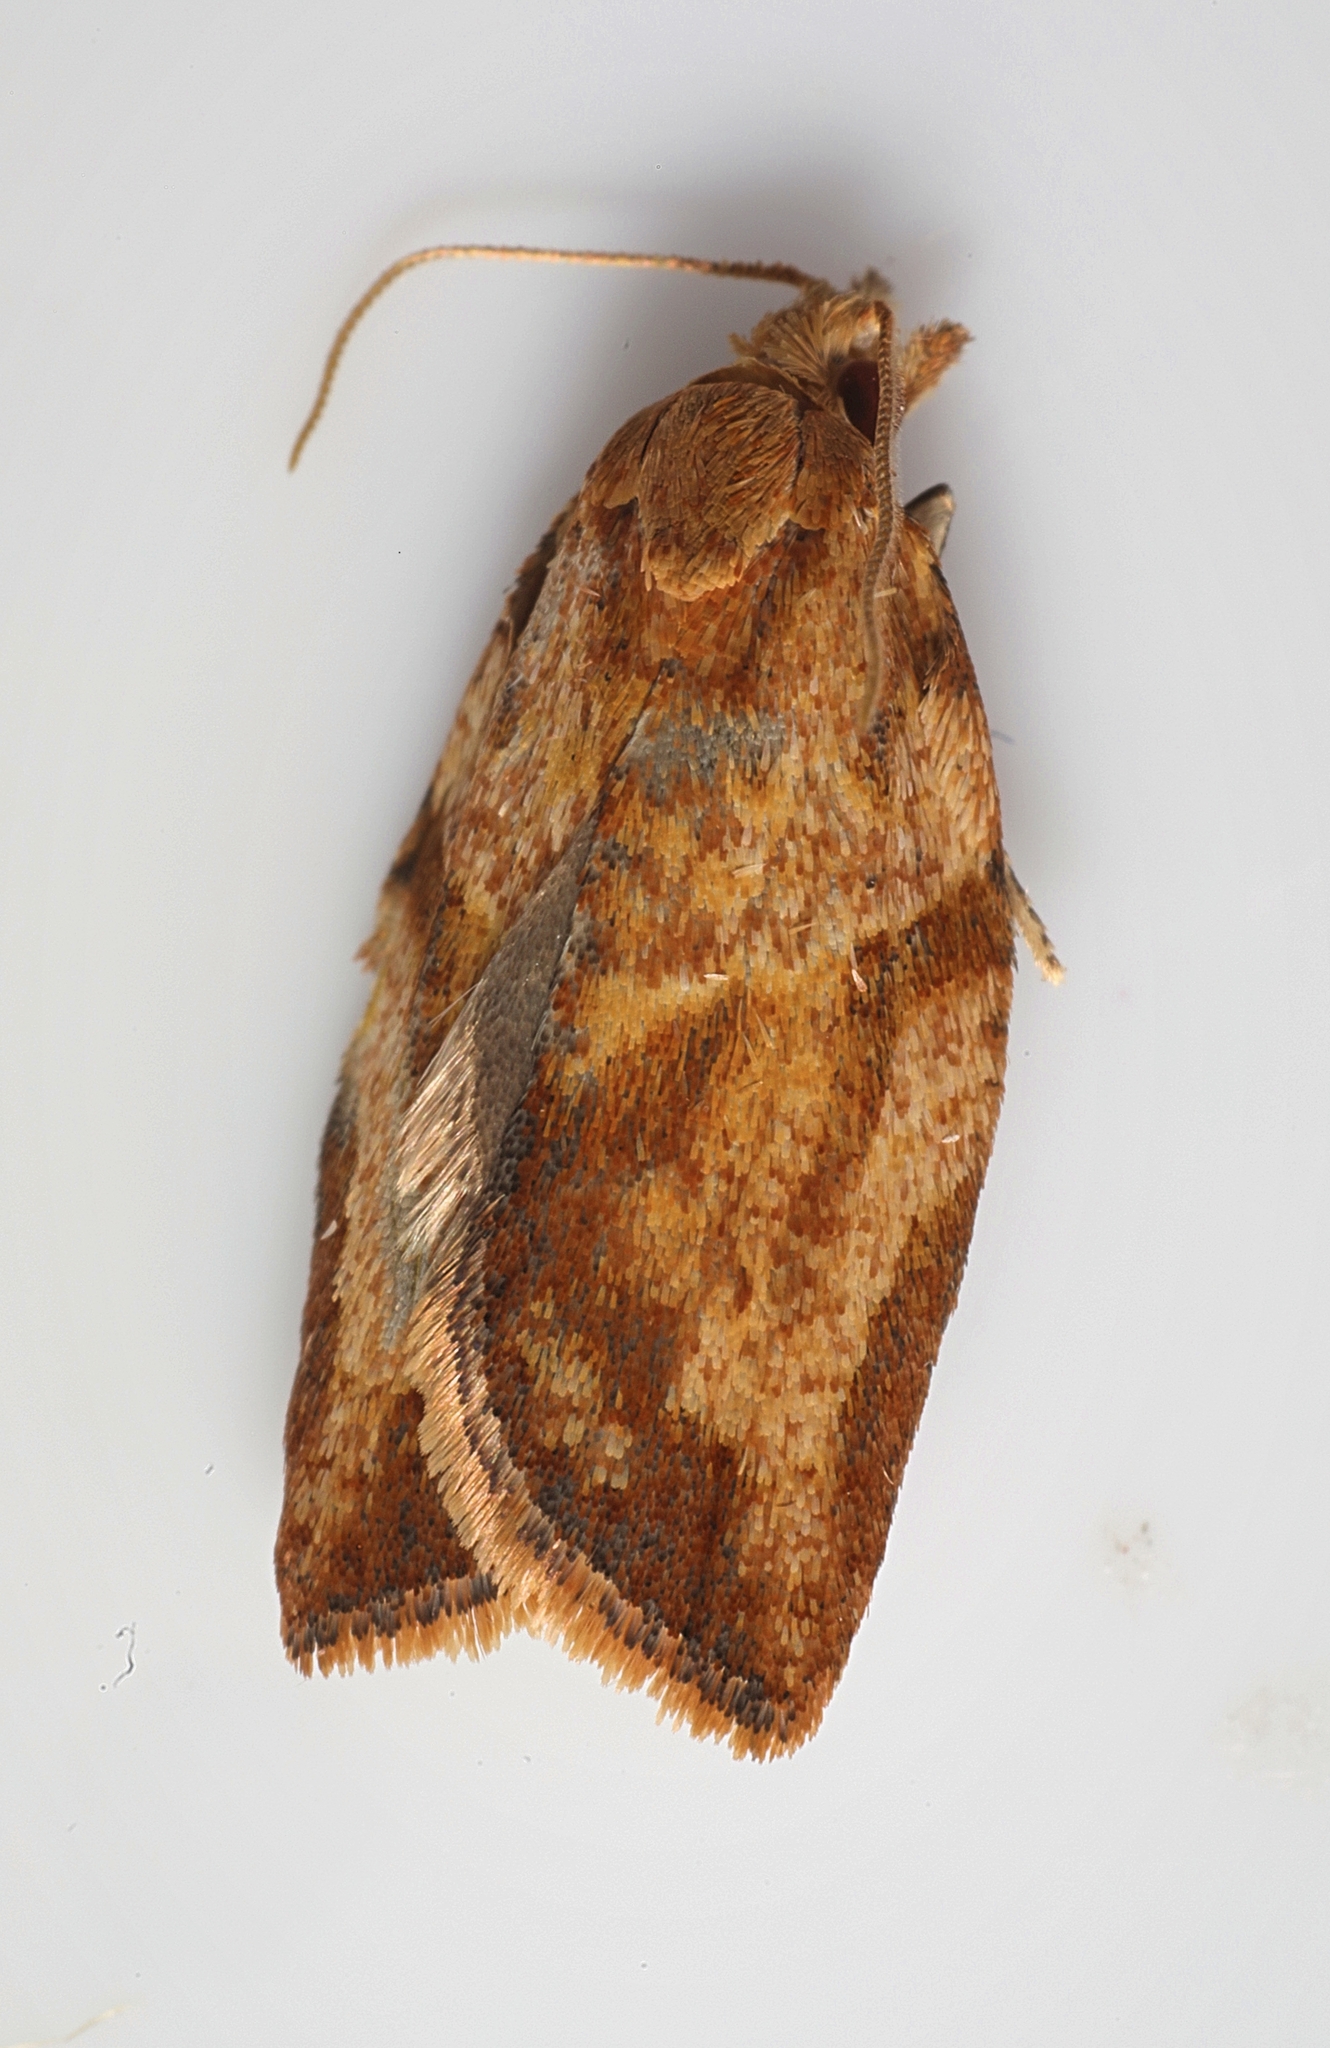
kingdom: Animalia
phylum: Arthropoda
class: Insecta
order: Lepidoptera
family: Tortricidae
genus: Epiphyas
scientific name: Epiphyas postvittana
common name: Light brown apple moth
